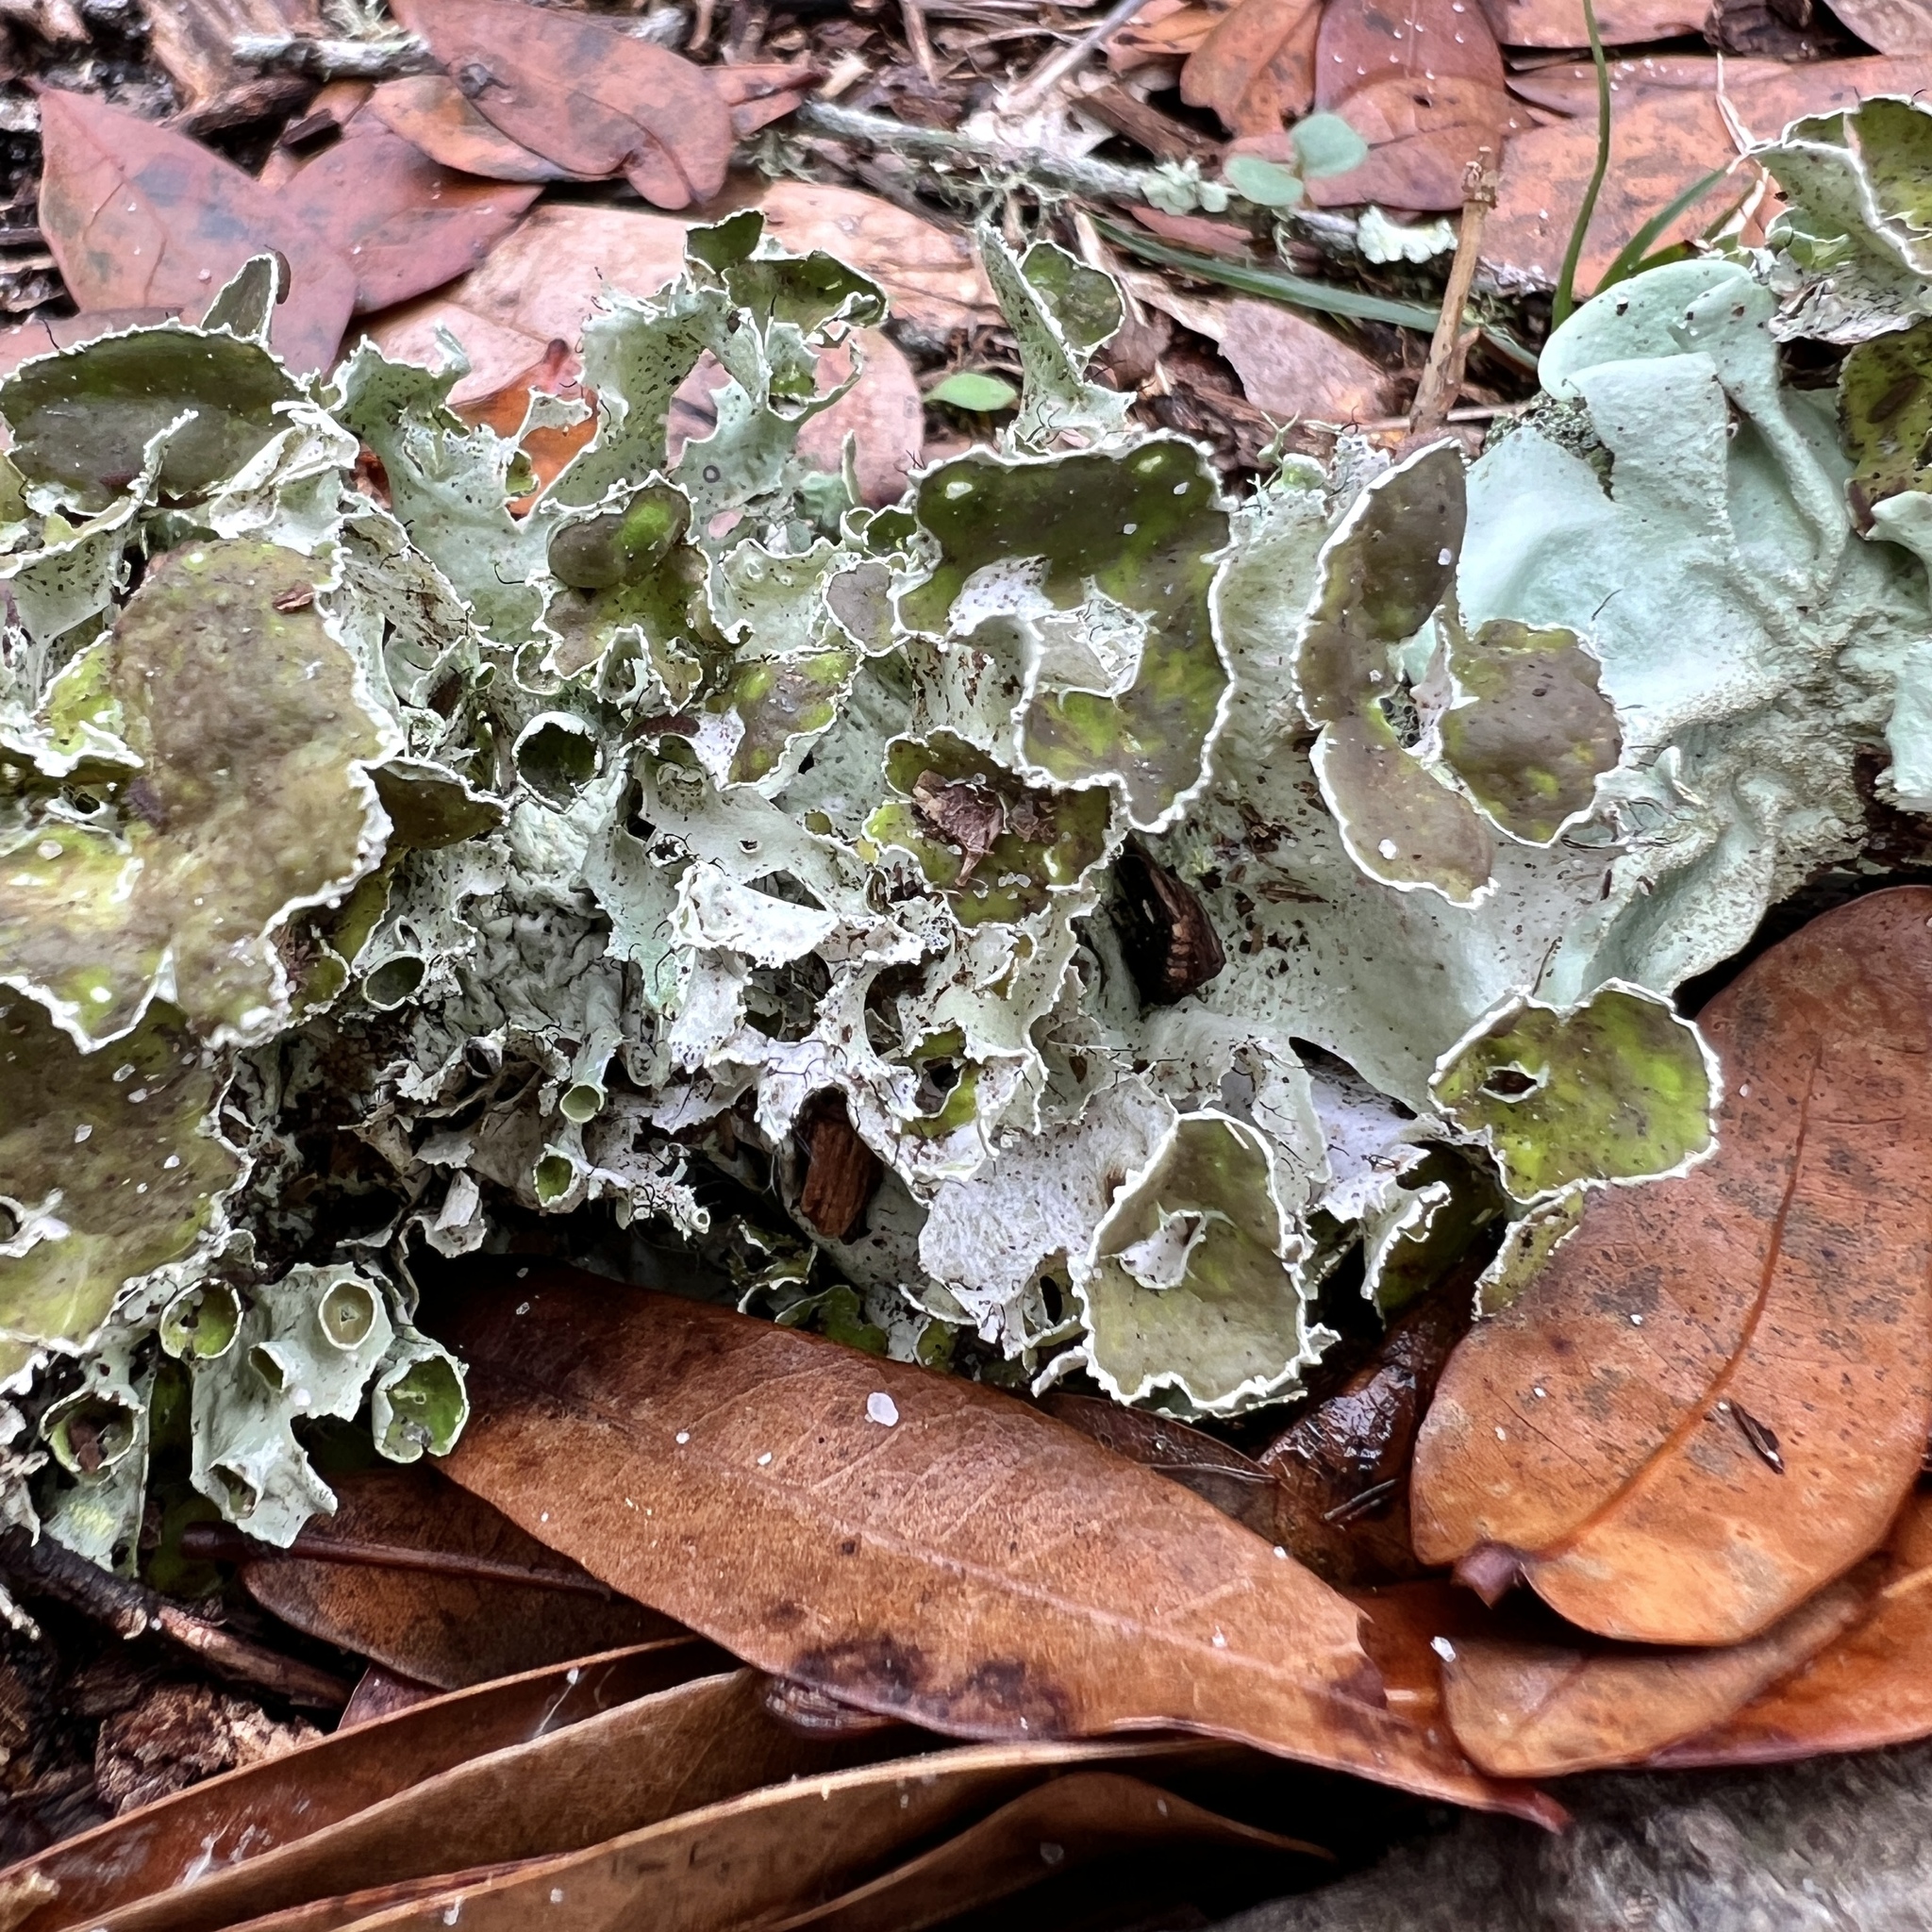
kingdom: Fungi
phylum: Ascomycota
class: Lecanoromycetes
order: Lecanorales
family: Parmeliaceae
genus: Parmotrema
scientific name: Parmotrema perforatum
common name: Perforated ruffle lichen
